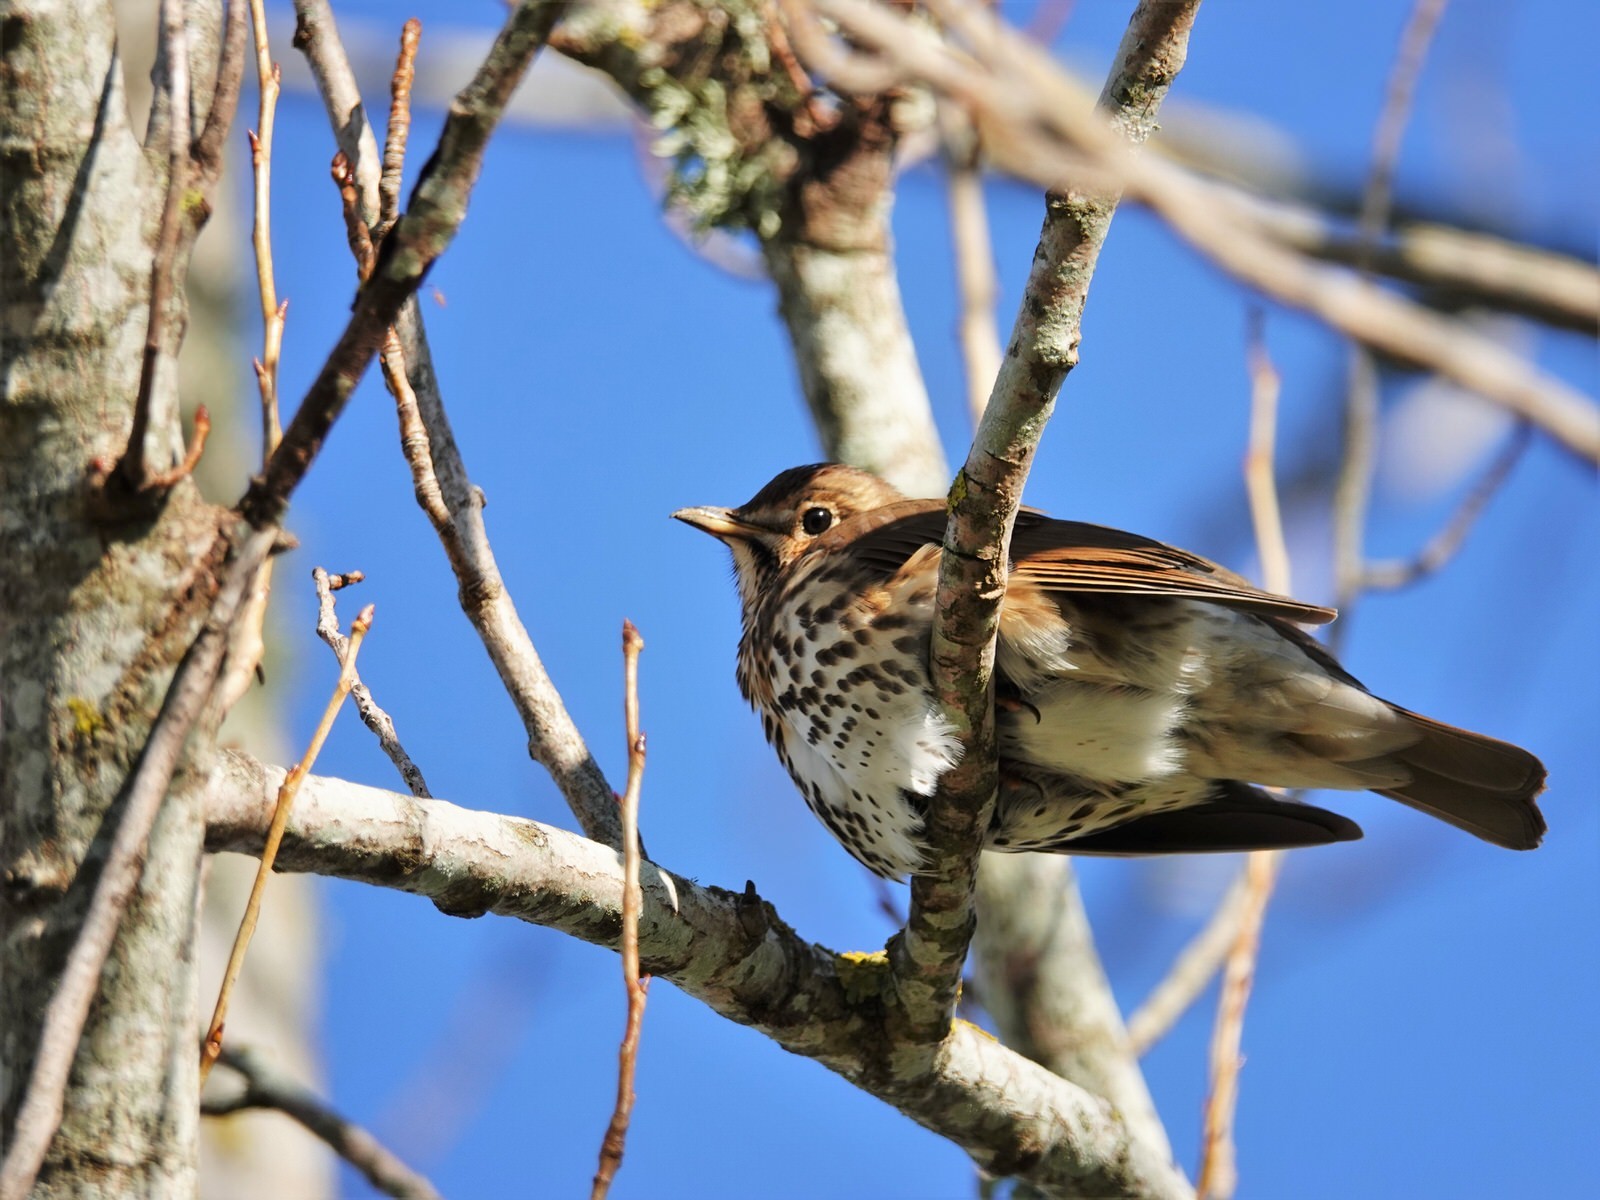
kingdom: Animalia
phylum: Chordata
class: Aves
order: Passeriformes
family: Turdidae
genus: Turdus
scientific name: Turdus philomelos
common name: Song thrush
